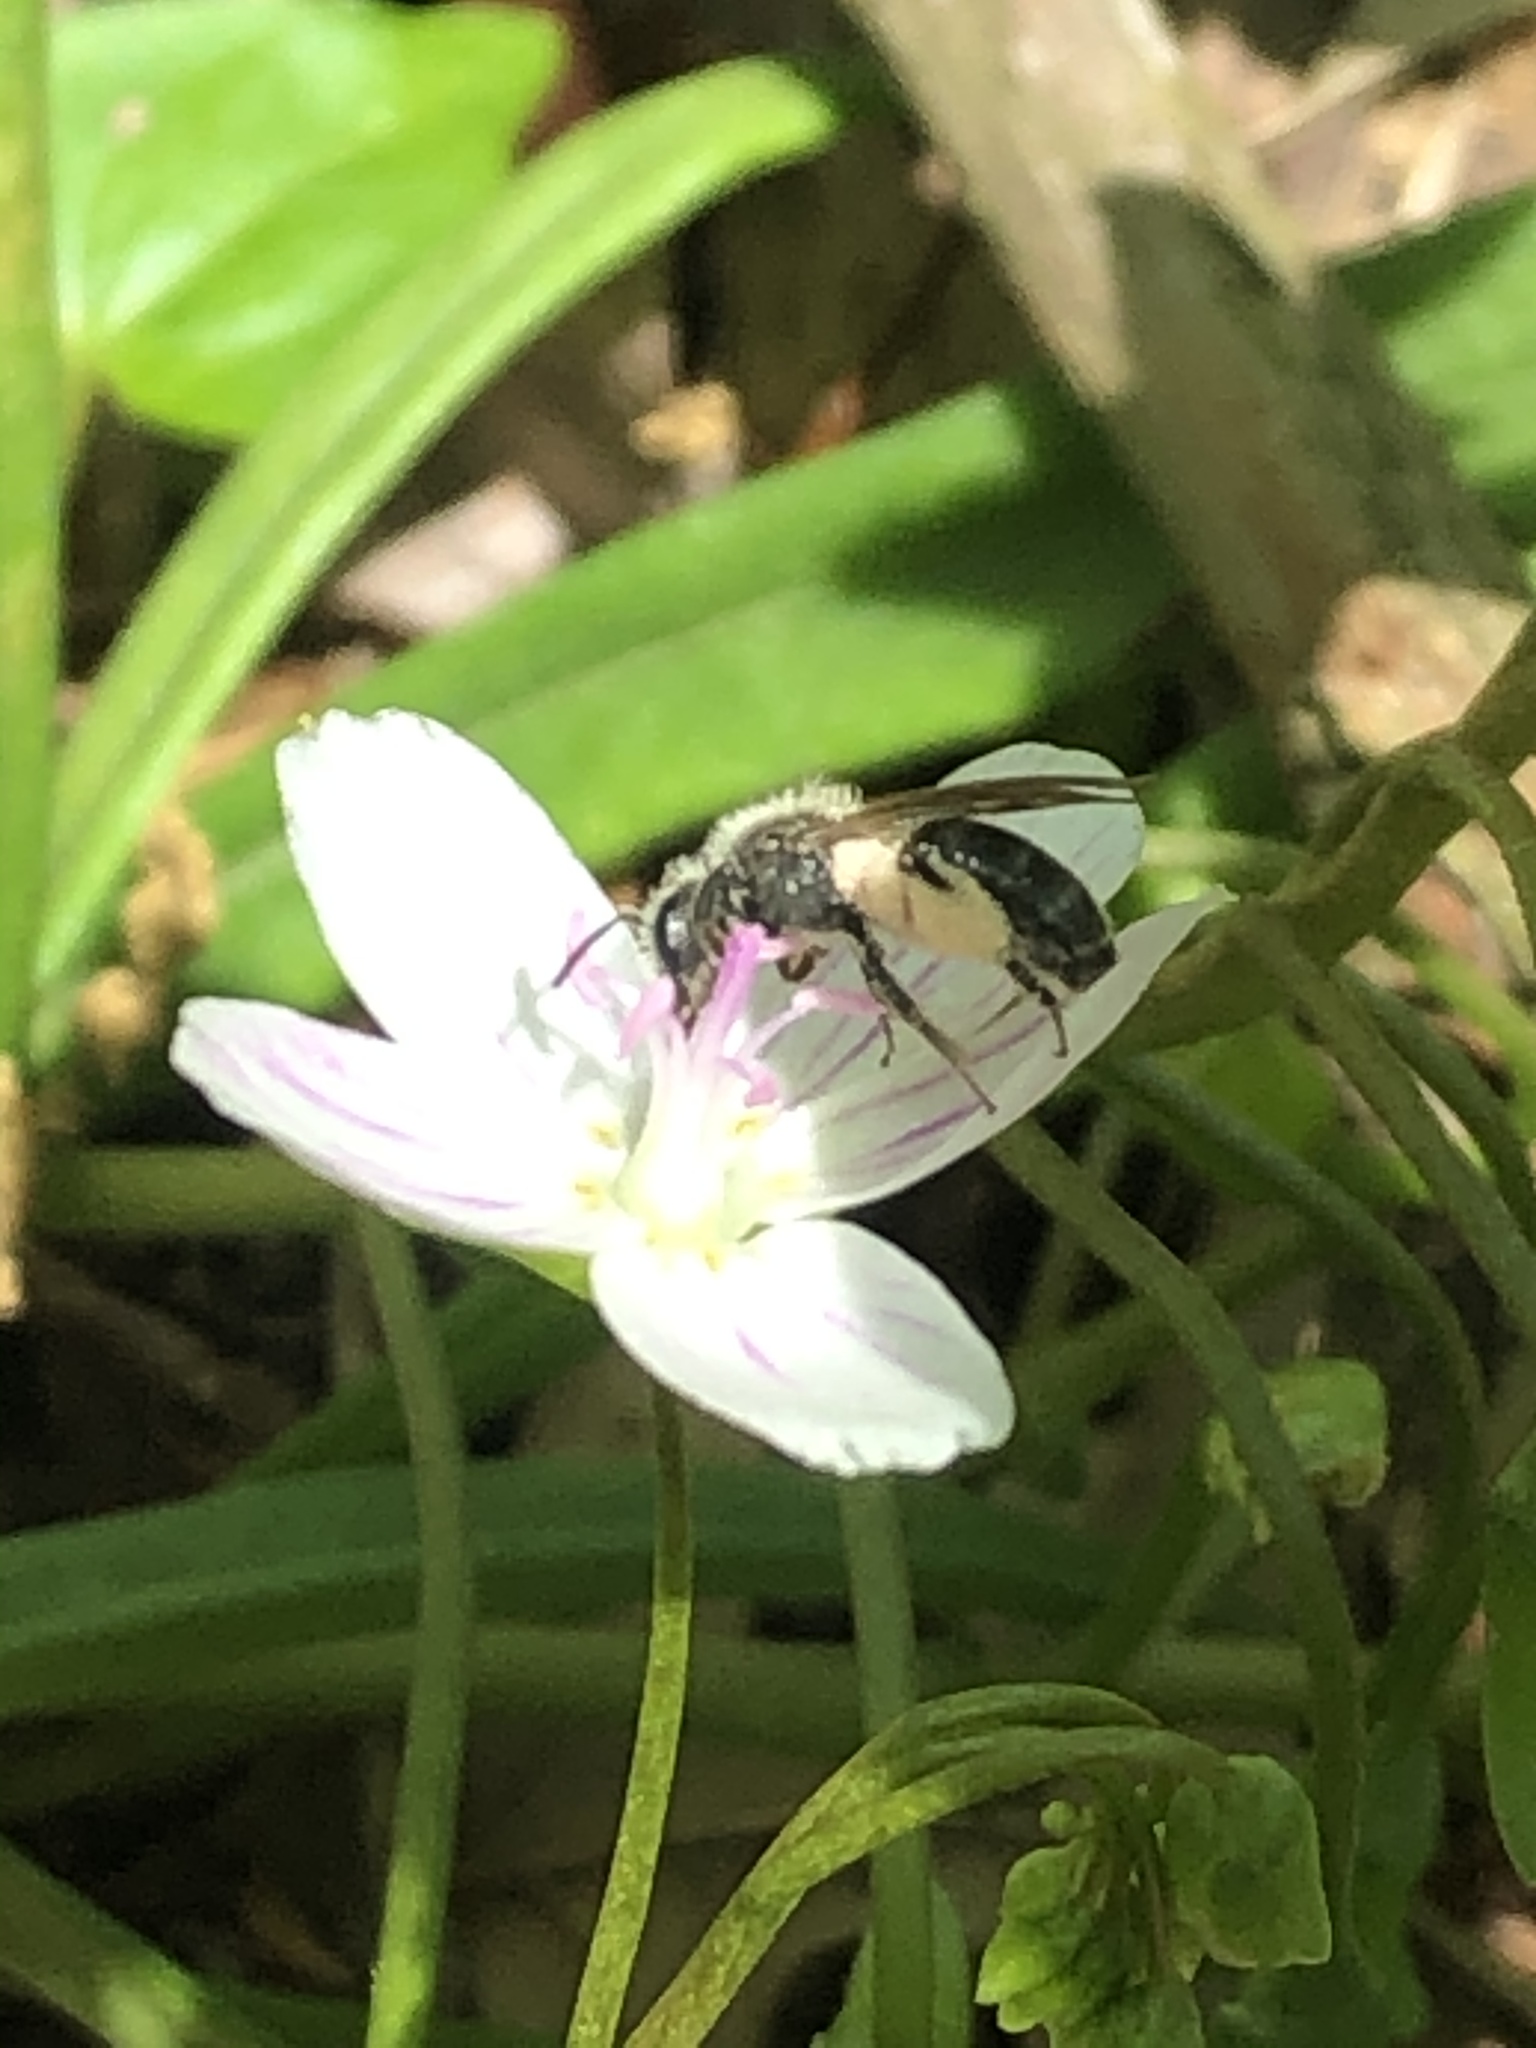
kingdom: Animalia
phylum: Arthropoda
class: Insecta
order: Hymenoptera
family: Andrenidae
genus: Andrena
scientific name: Andrena erigeniae
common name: Spring beauty miner
